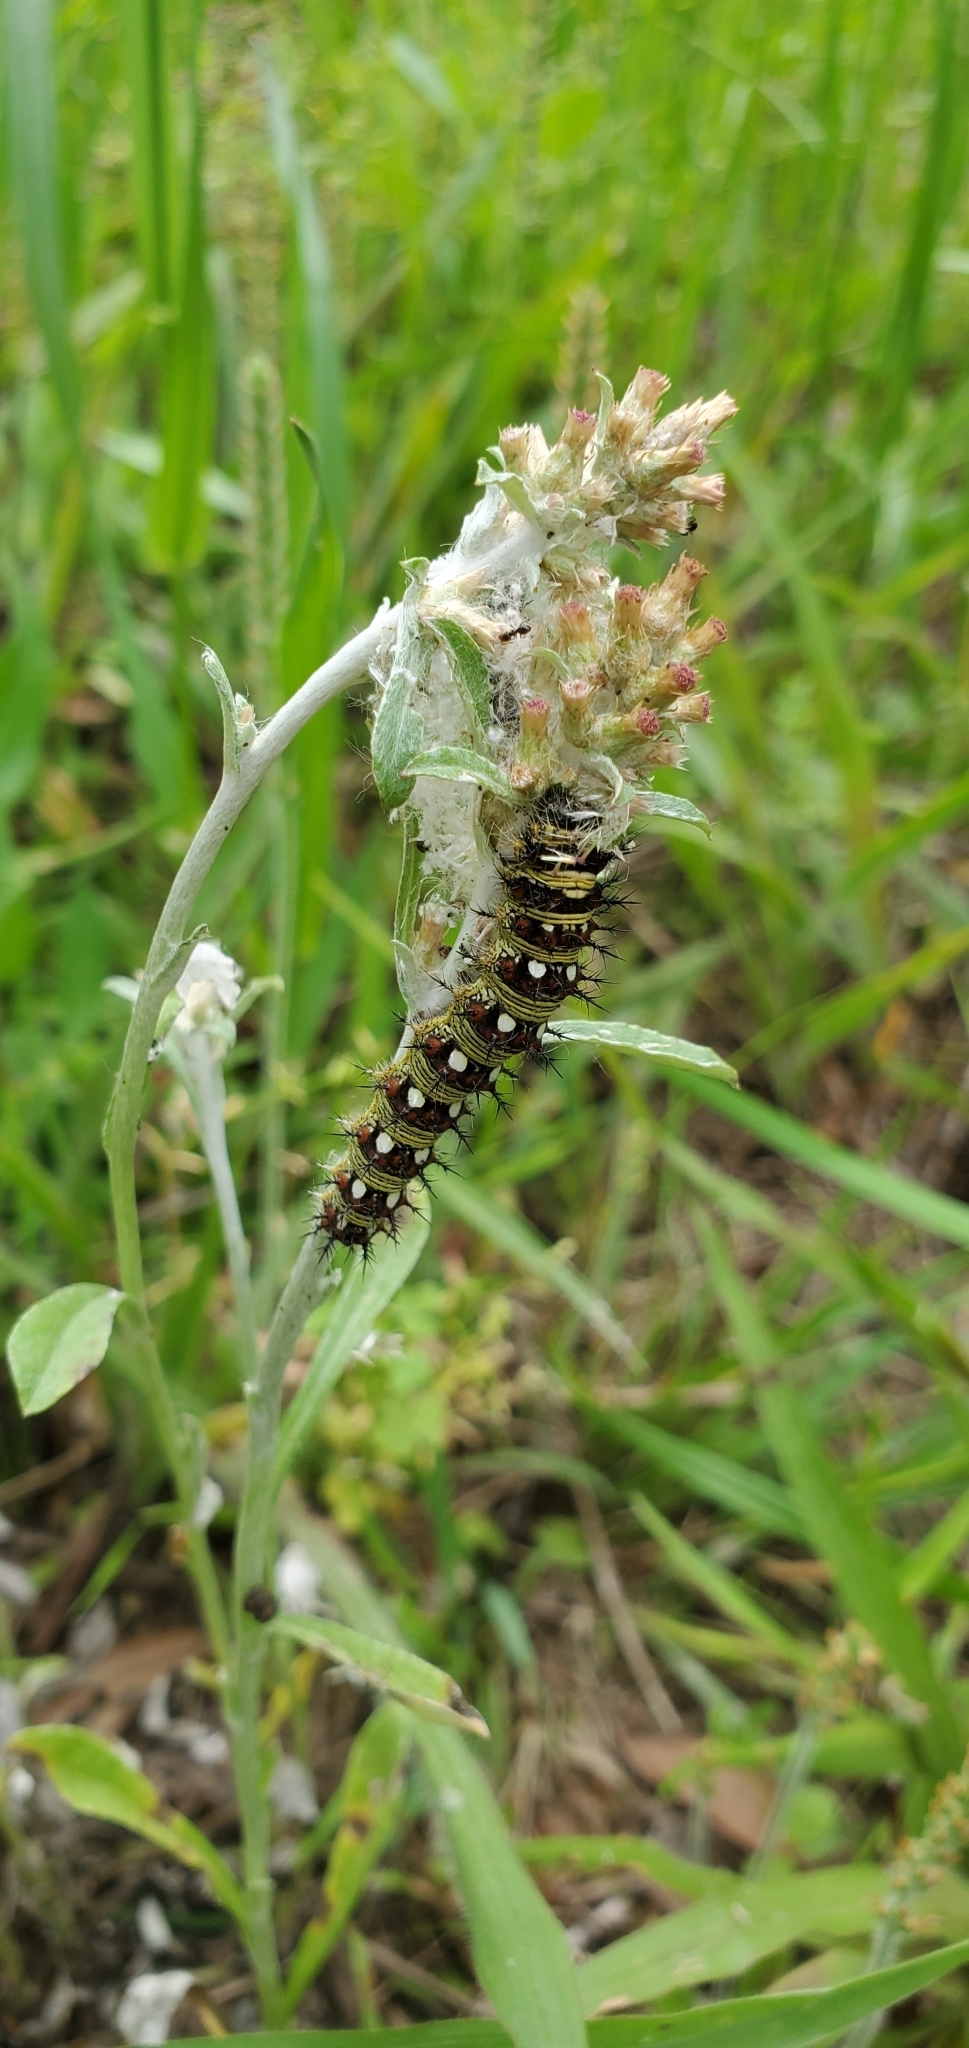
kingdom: Animalia
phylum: Arthropoda
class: Insecta
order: Lepidoptera
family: Nymphalidae
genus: Vanessa
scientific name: Vanessa virginiensis
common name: American lady
